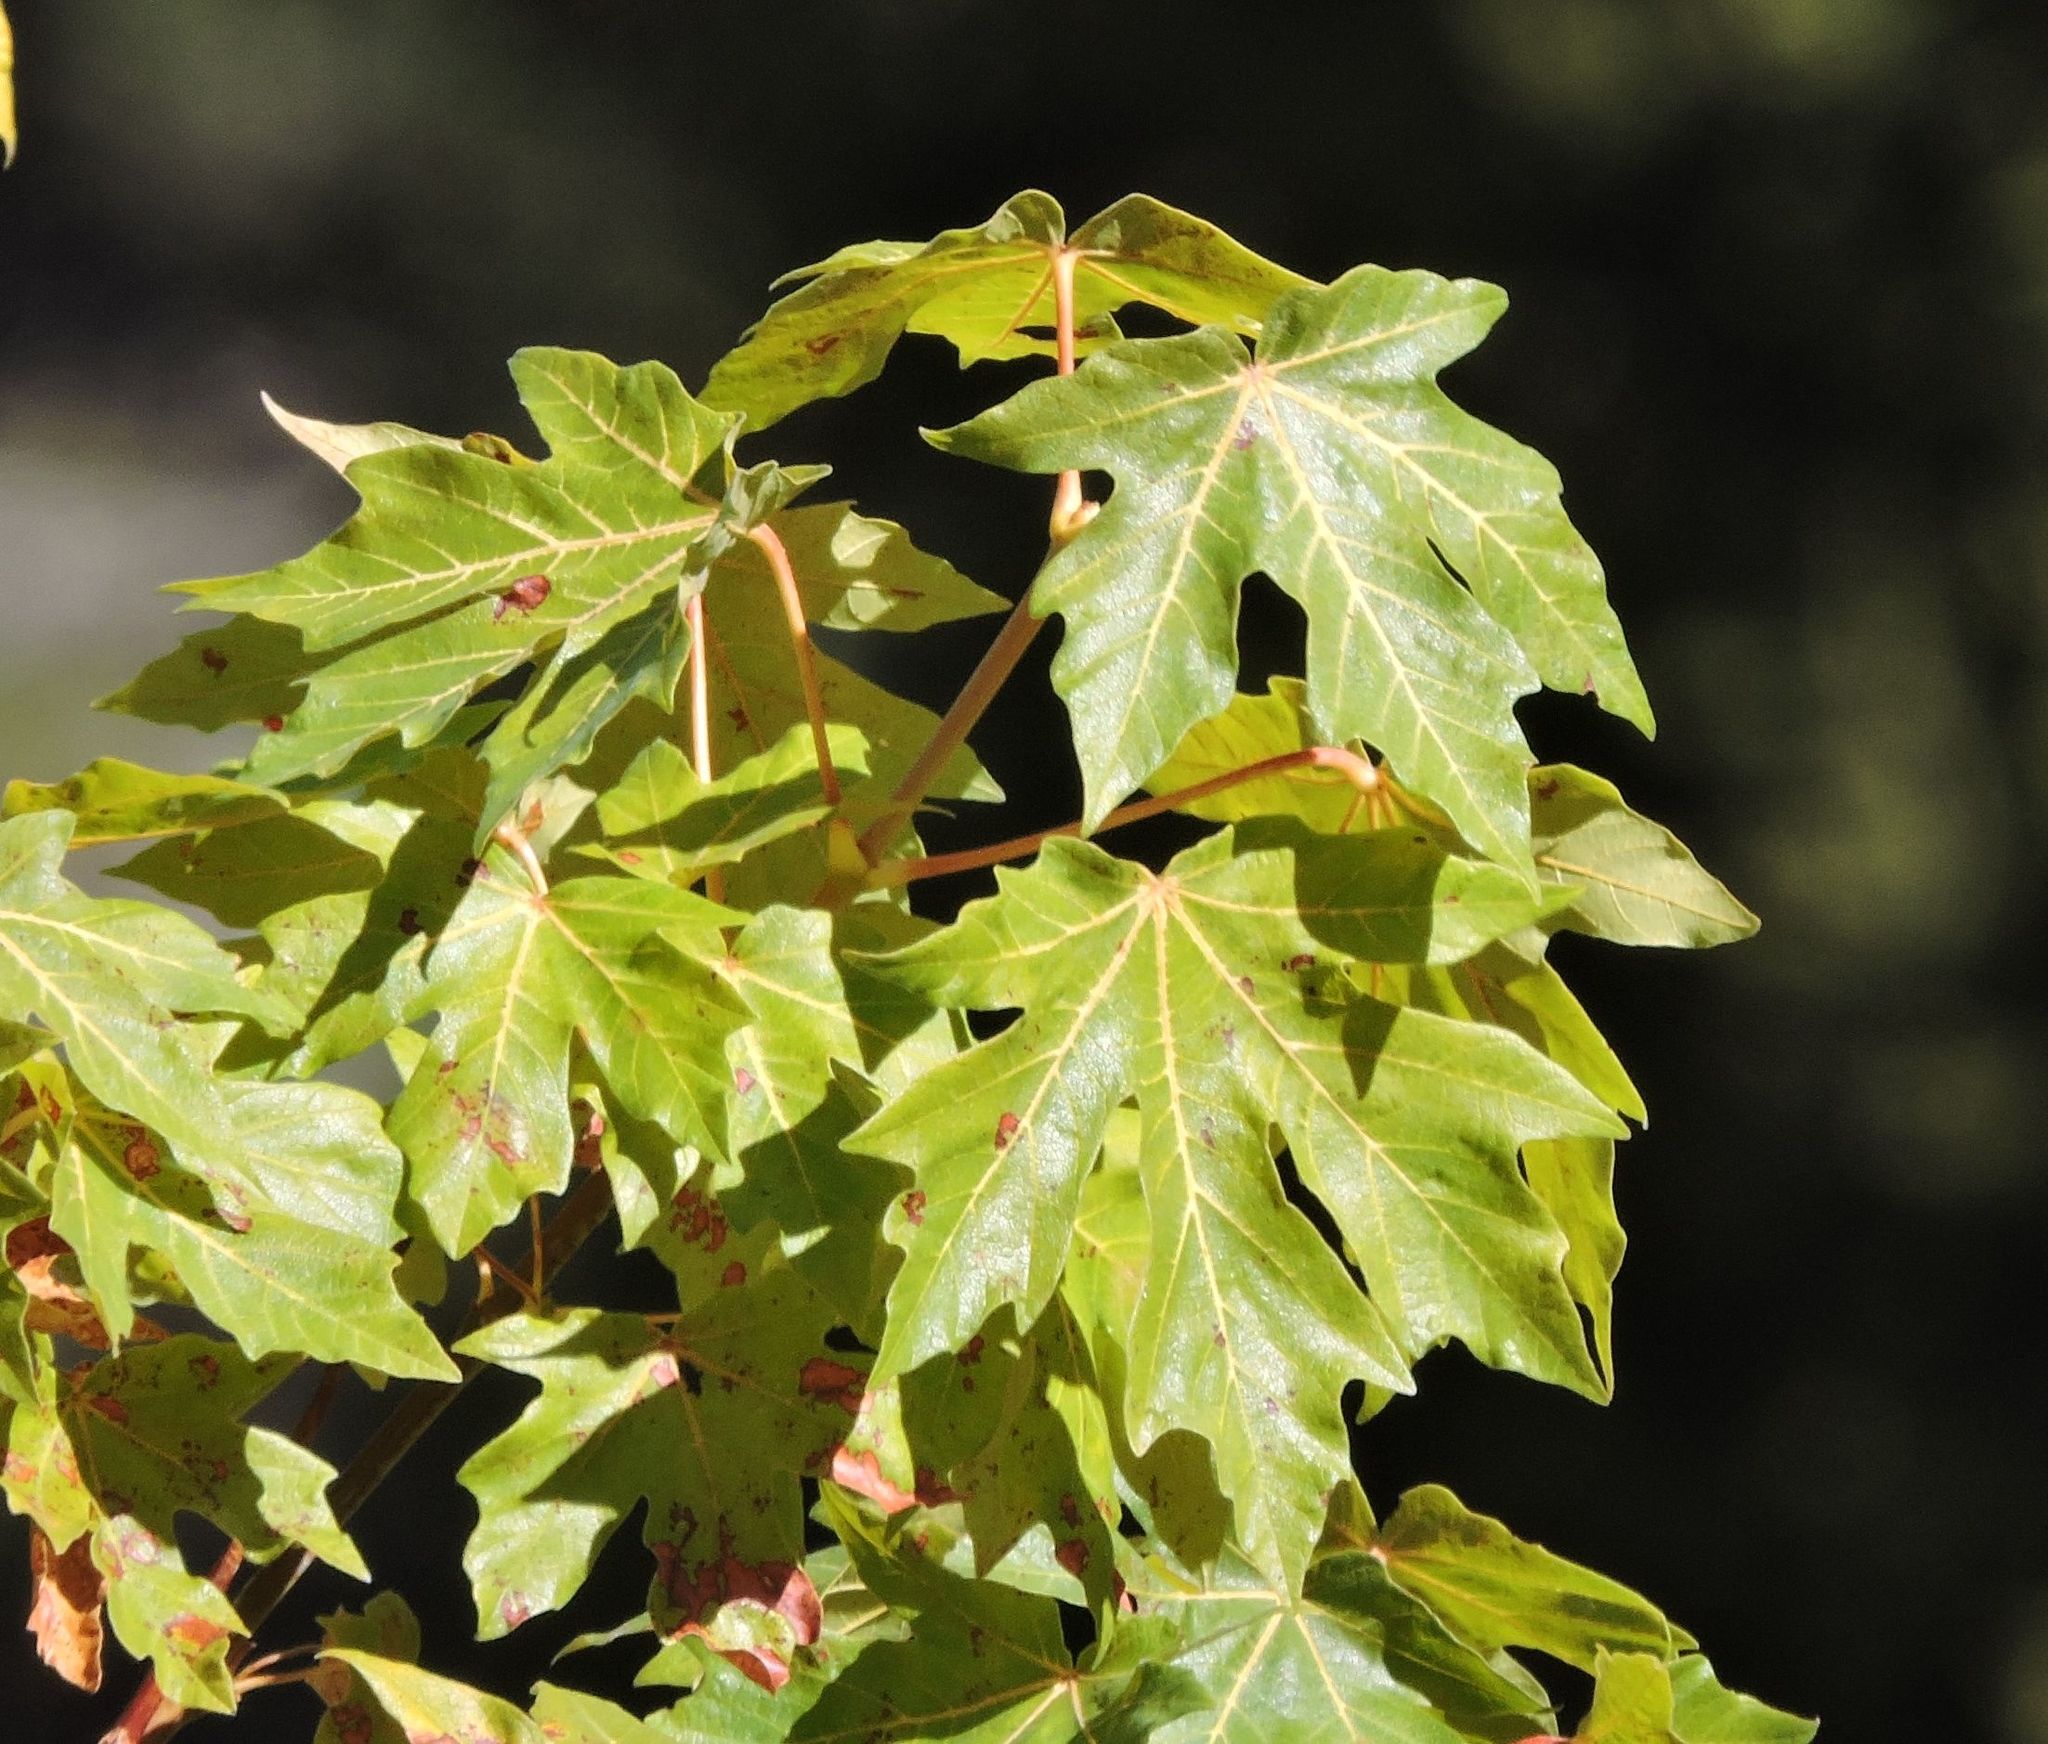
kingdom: Plantae
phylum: Tracheophyta
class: Magnoliopsida
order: Sapindales
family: Sapindaceae
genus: Acer
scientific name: Acer macrophyllum
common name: Oregon maple
